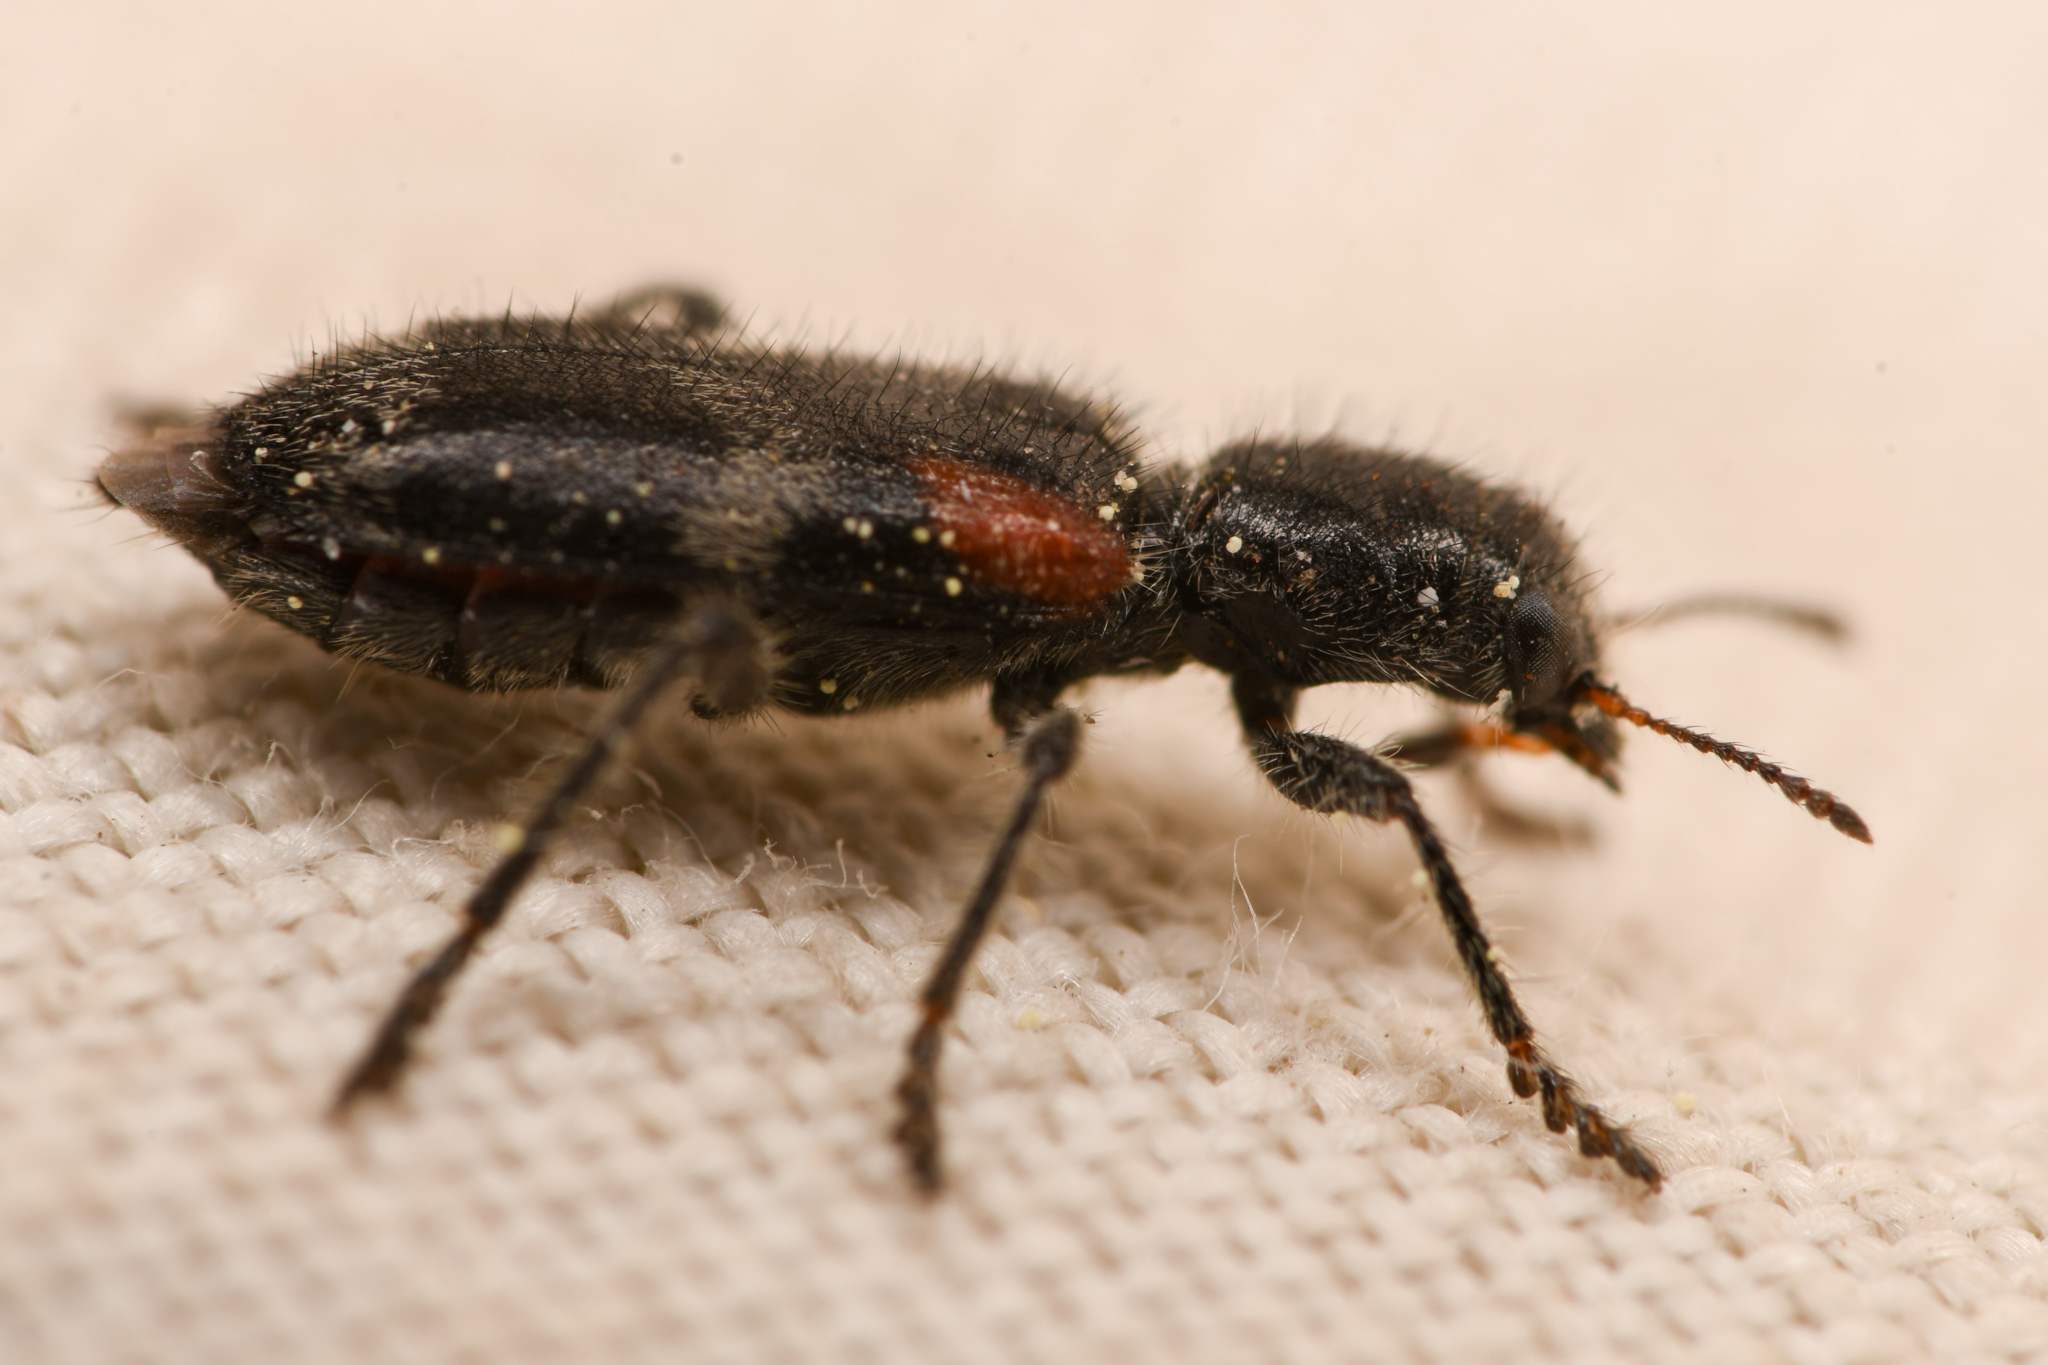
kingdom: Animalia
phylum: Arthropoda
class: Insecta
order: Coleoptera
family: Cleridae
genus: Enoclerus
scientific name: Enoclerus schaefferi
